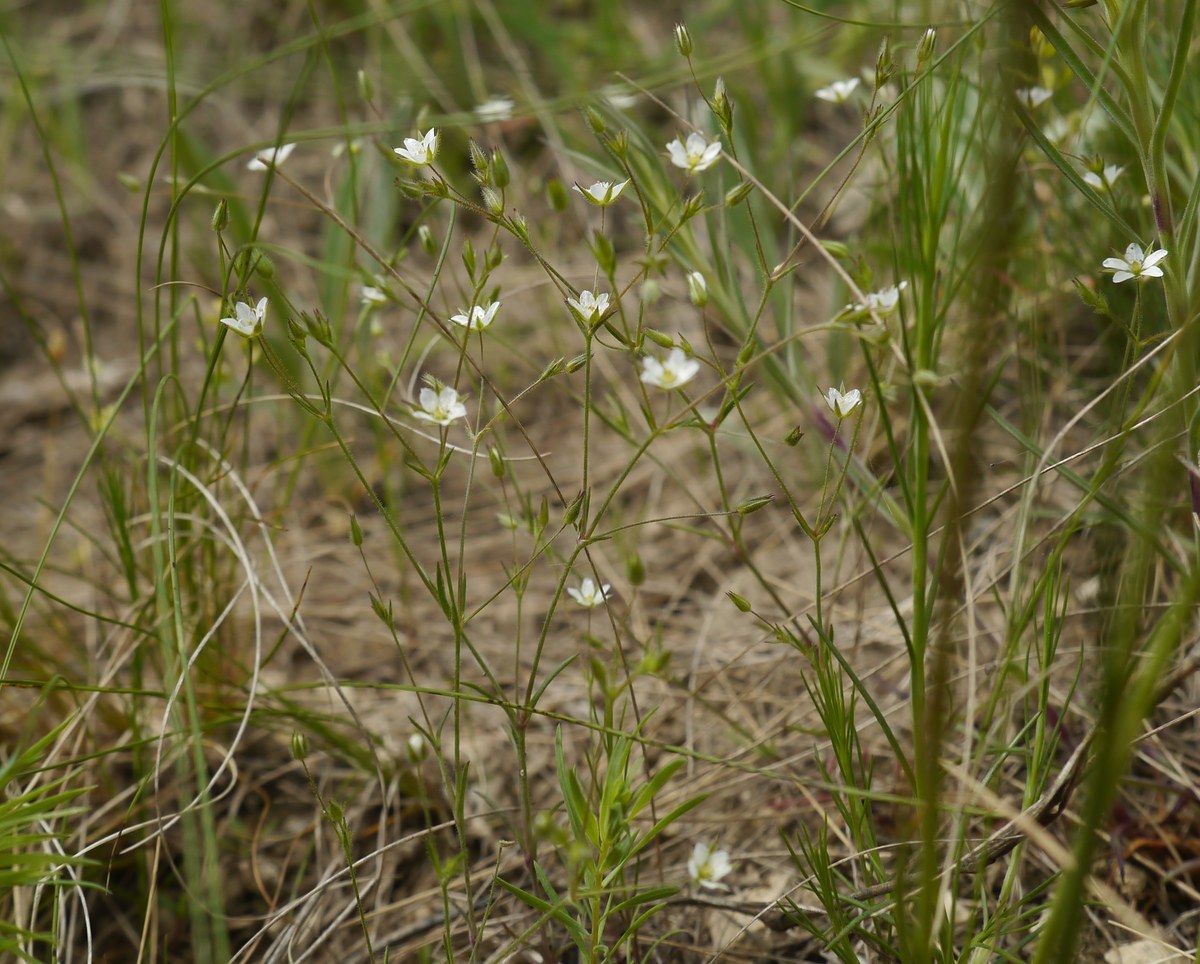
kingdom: Plantae
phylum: Tracheophyta
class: Magnoliopsida
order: Caryophyllales
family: Caryophyllaceae
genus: Sabulina
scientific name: Sabulina tenuifolia
